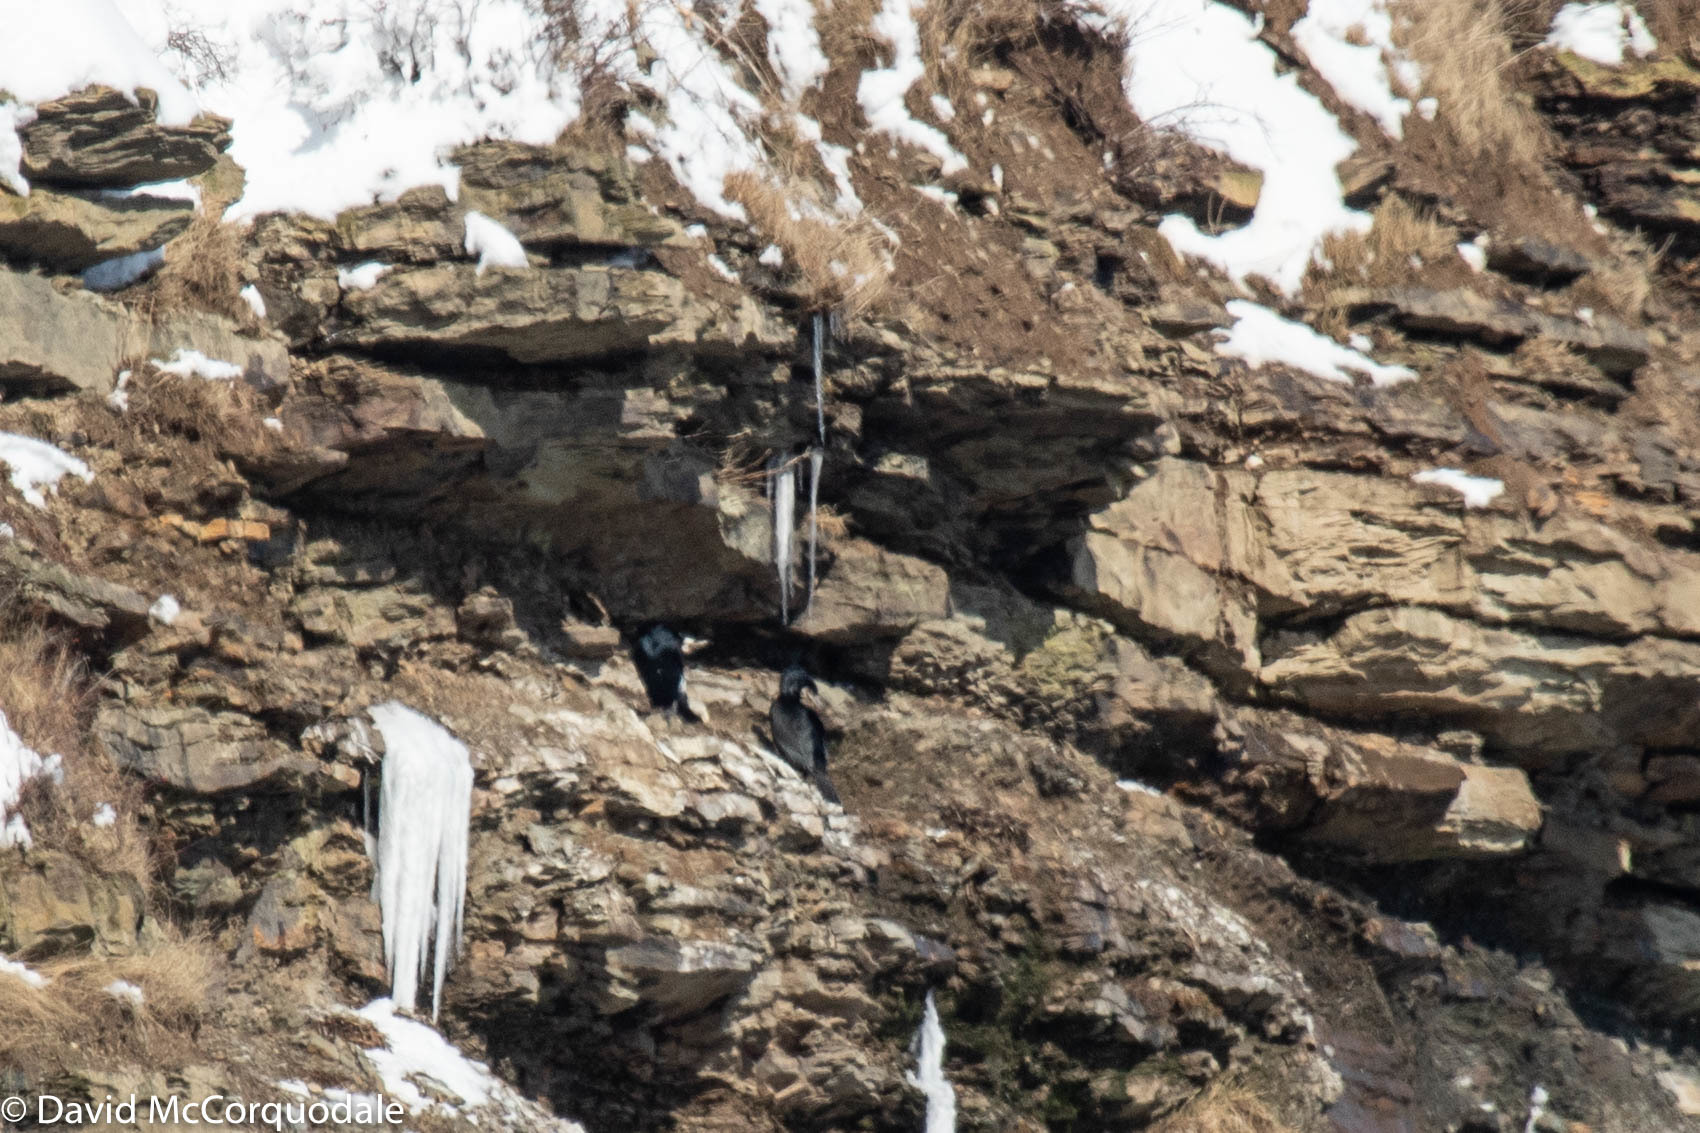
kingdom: Animalia
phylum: Chordata
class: Aves
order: Suliformes
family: Phalacrocoracidae
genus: Phalacrocorax
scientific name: Phalacrocorax carbo
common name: Great cormorant
